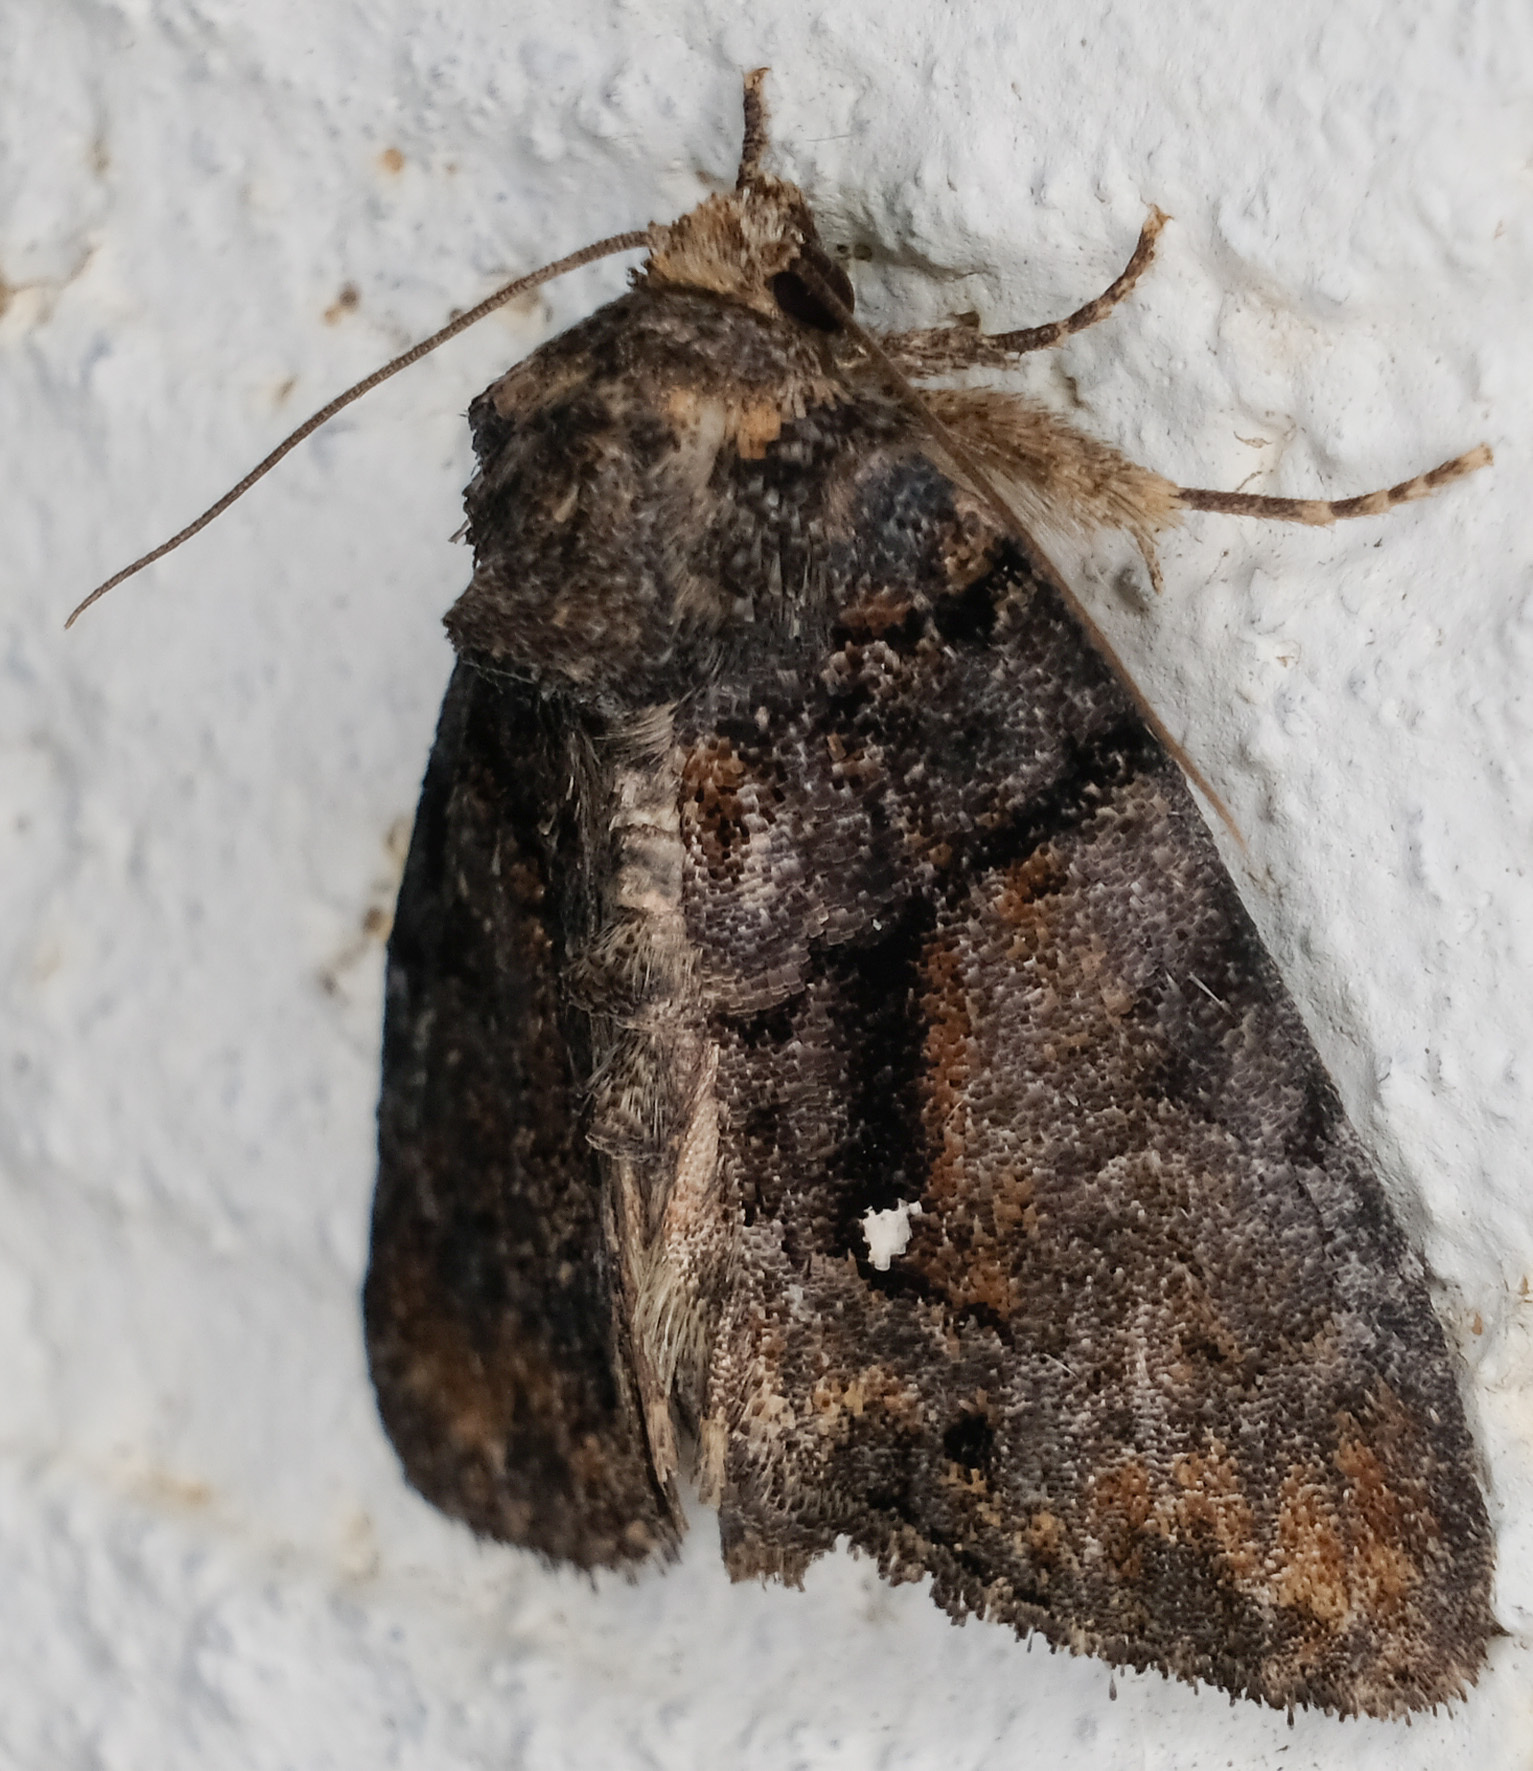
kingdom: Animalia
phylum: Arthropoda
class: Insecta
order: Lepidoptera
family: Noctuidae
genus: Chytonix
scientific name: Chytonix palliatricula
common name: Cloaked marvel
